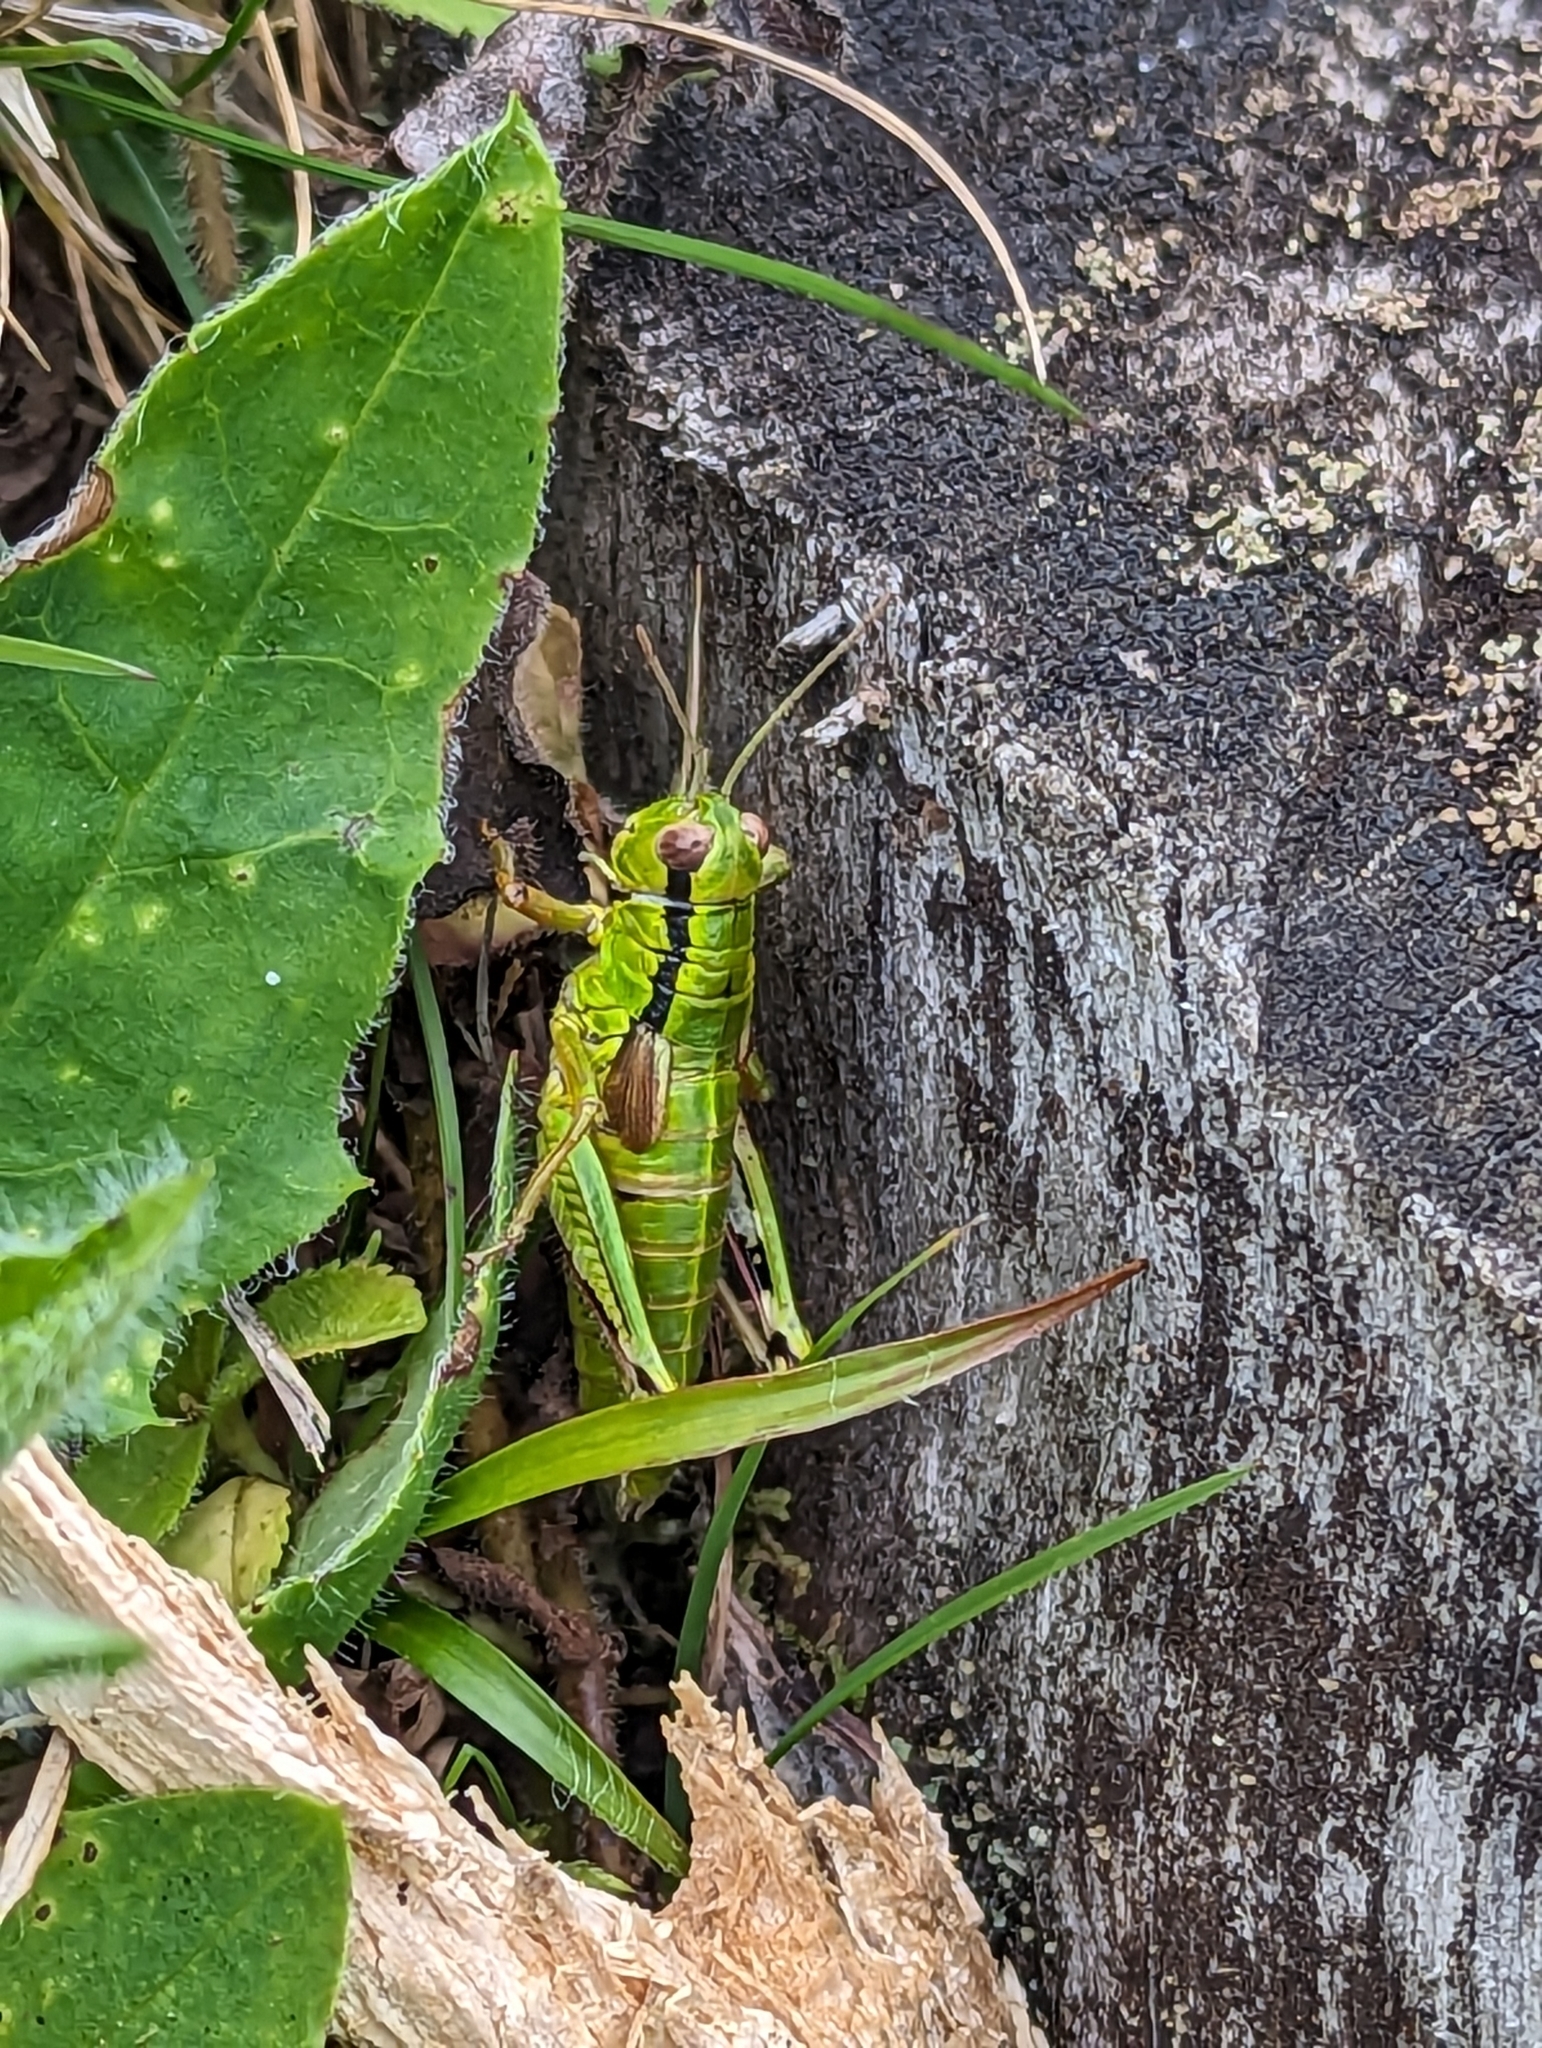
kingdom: Animalia
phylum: Arthropoda
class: Insecta
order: Orthoptera
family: Acrididae
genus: Miramella
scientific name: Miramella alpina
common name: Green mountain grasshopper
